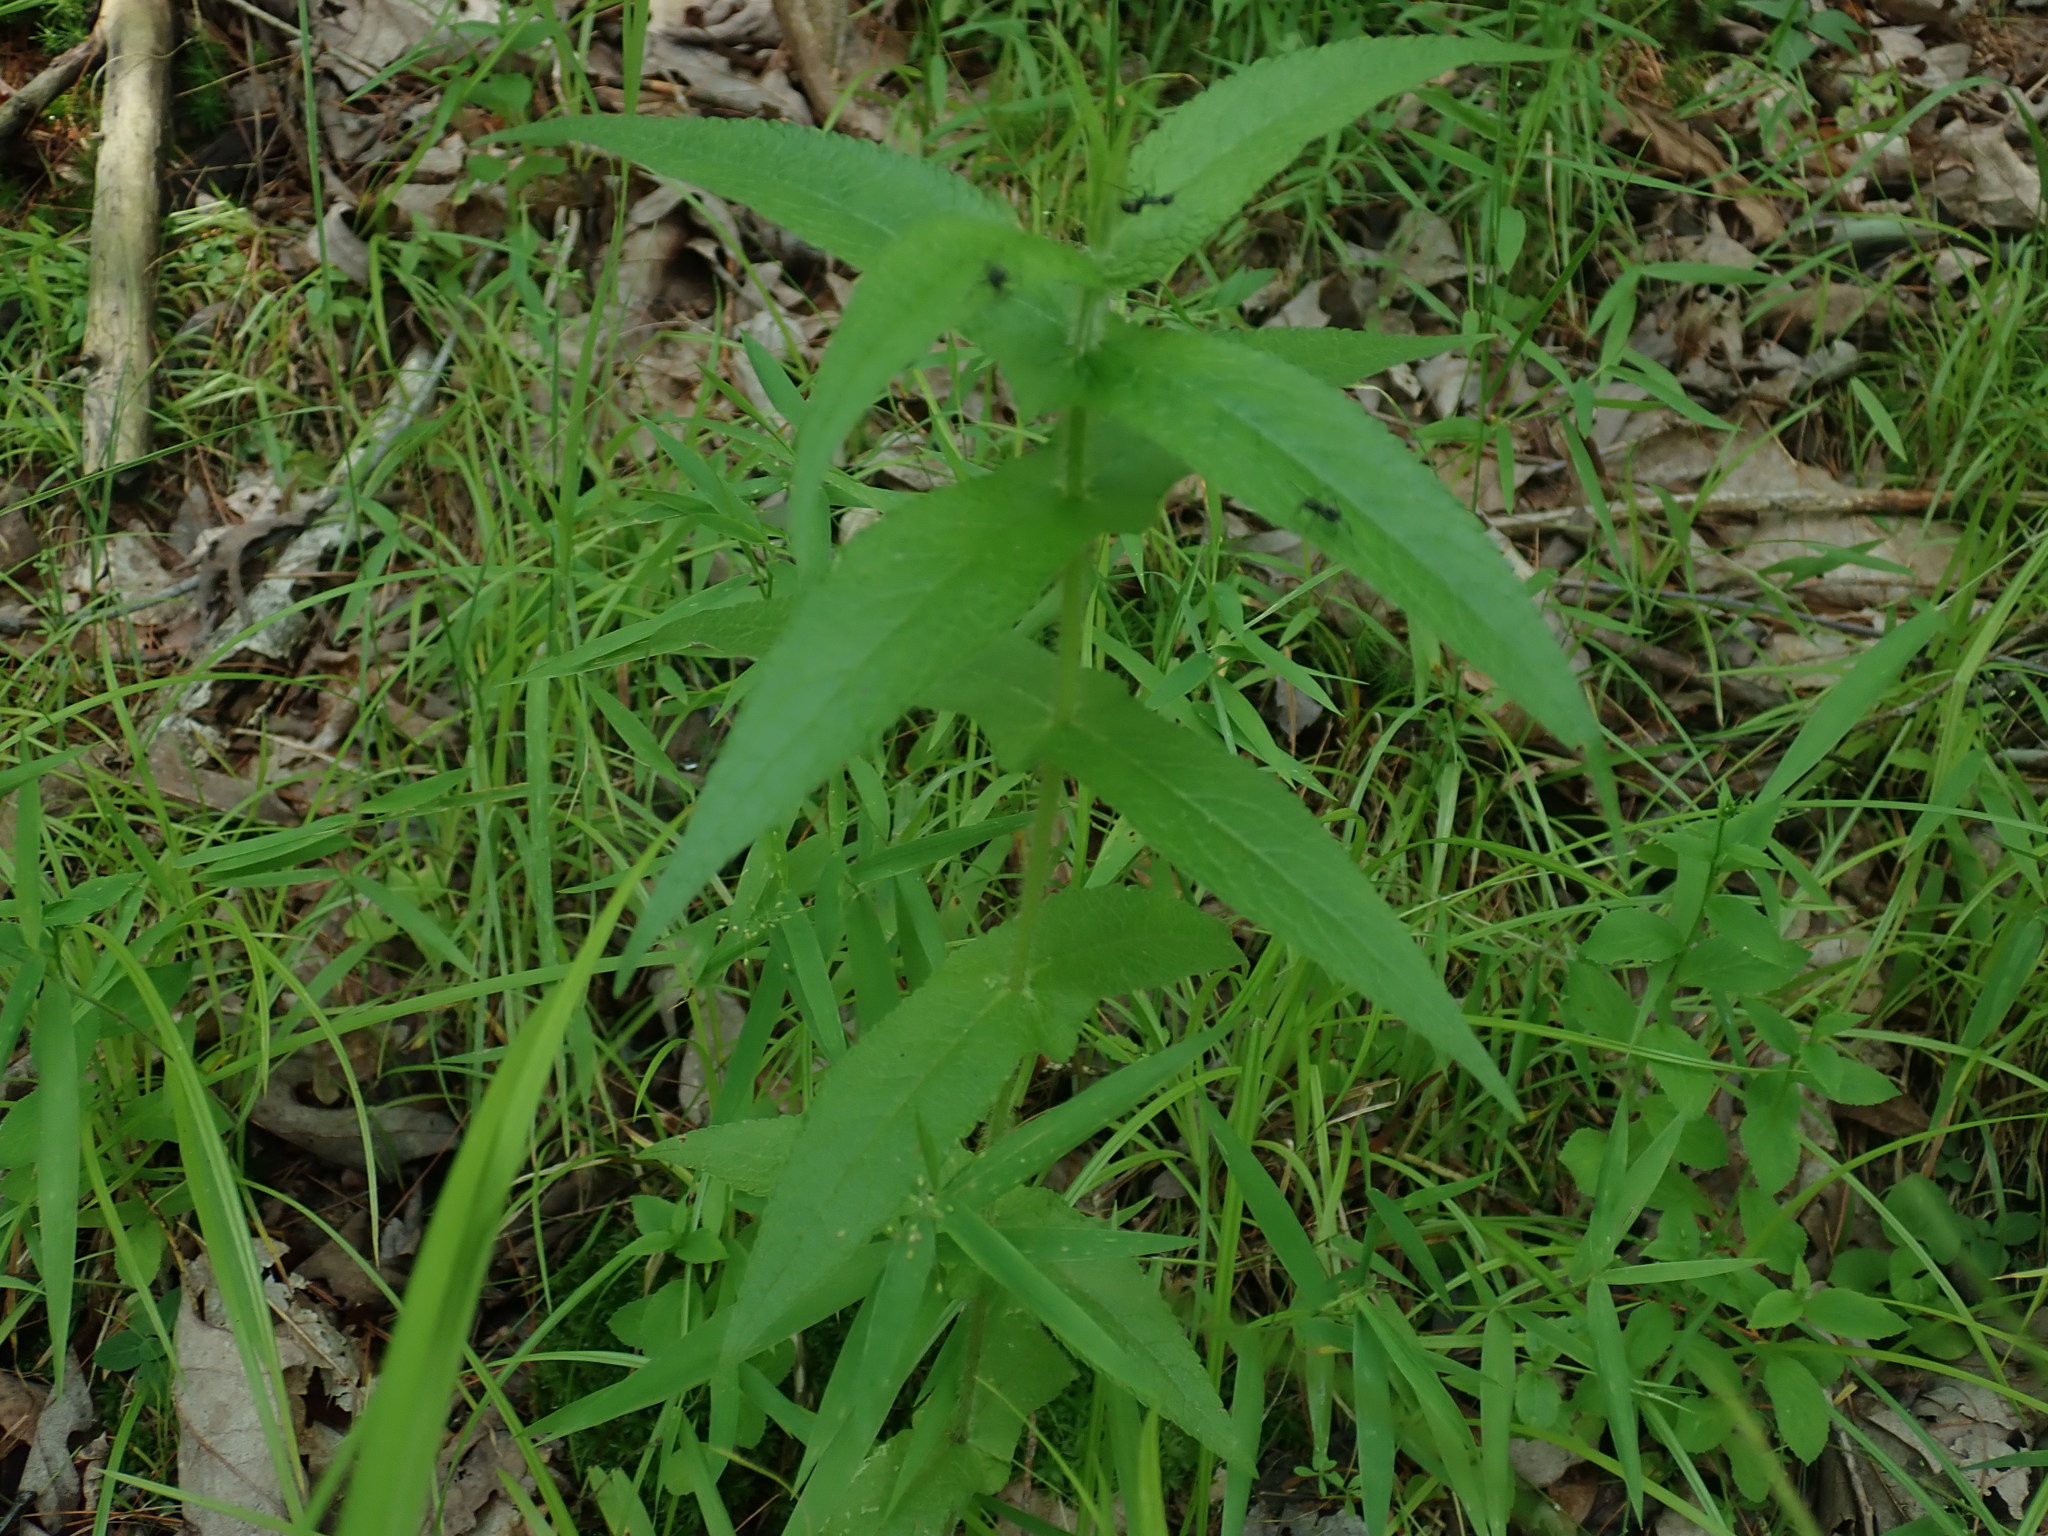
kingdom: Plantae
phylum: Tracheophyta
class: Magnoliopsida
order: Asterales
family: Asteraceae
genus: Eupatorium
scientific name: Eupatorium perfoliatum
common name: Boneset
